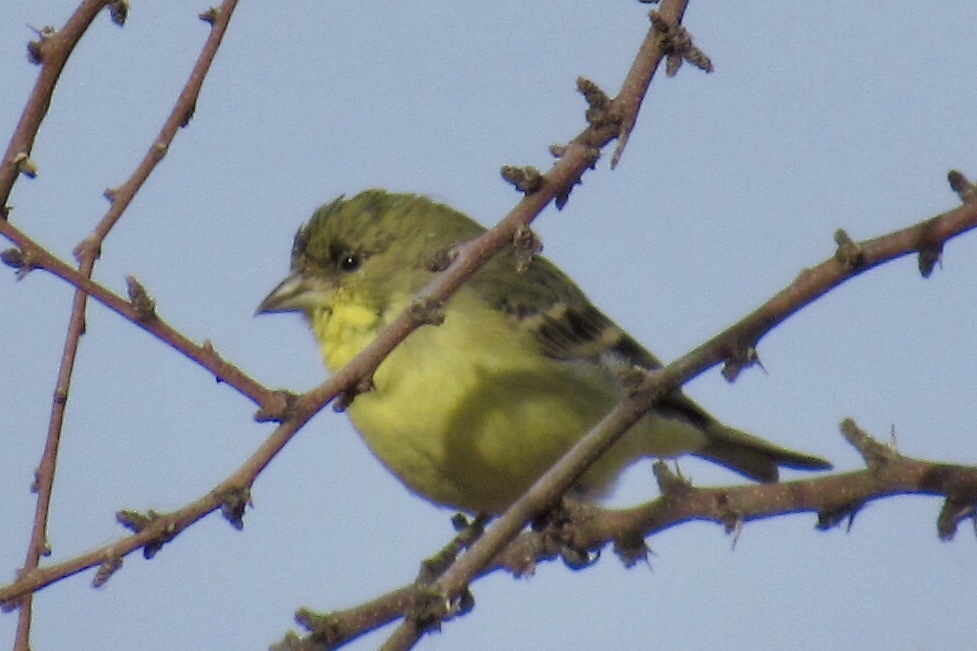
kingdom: Animalia
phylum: Chordata
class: Aves
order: Passeriformes
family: Fringillidae
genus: Spinus
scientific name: Spinus psaltria
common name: Lesser goldfinch
